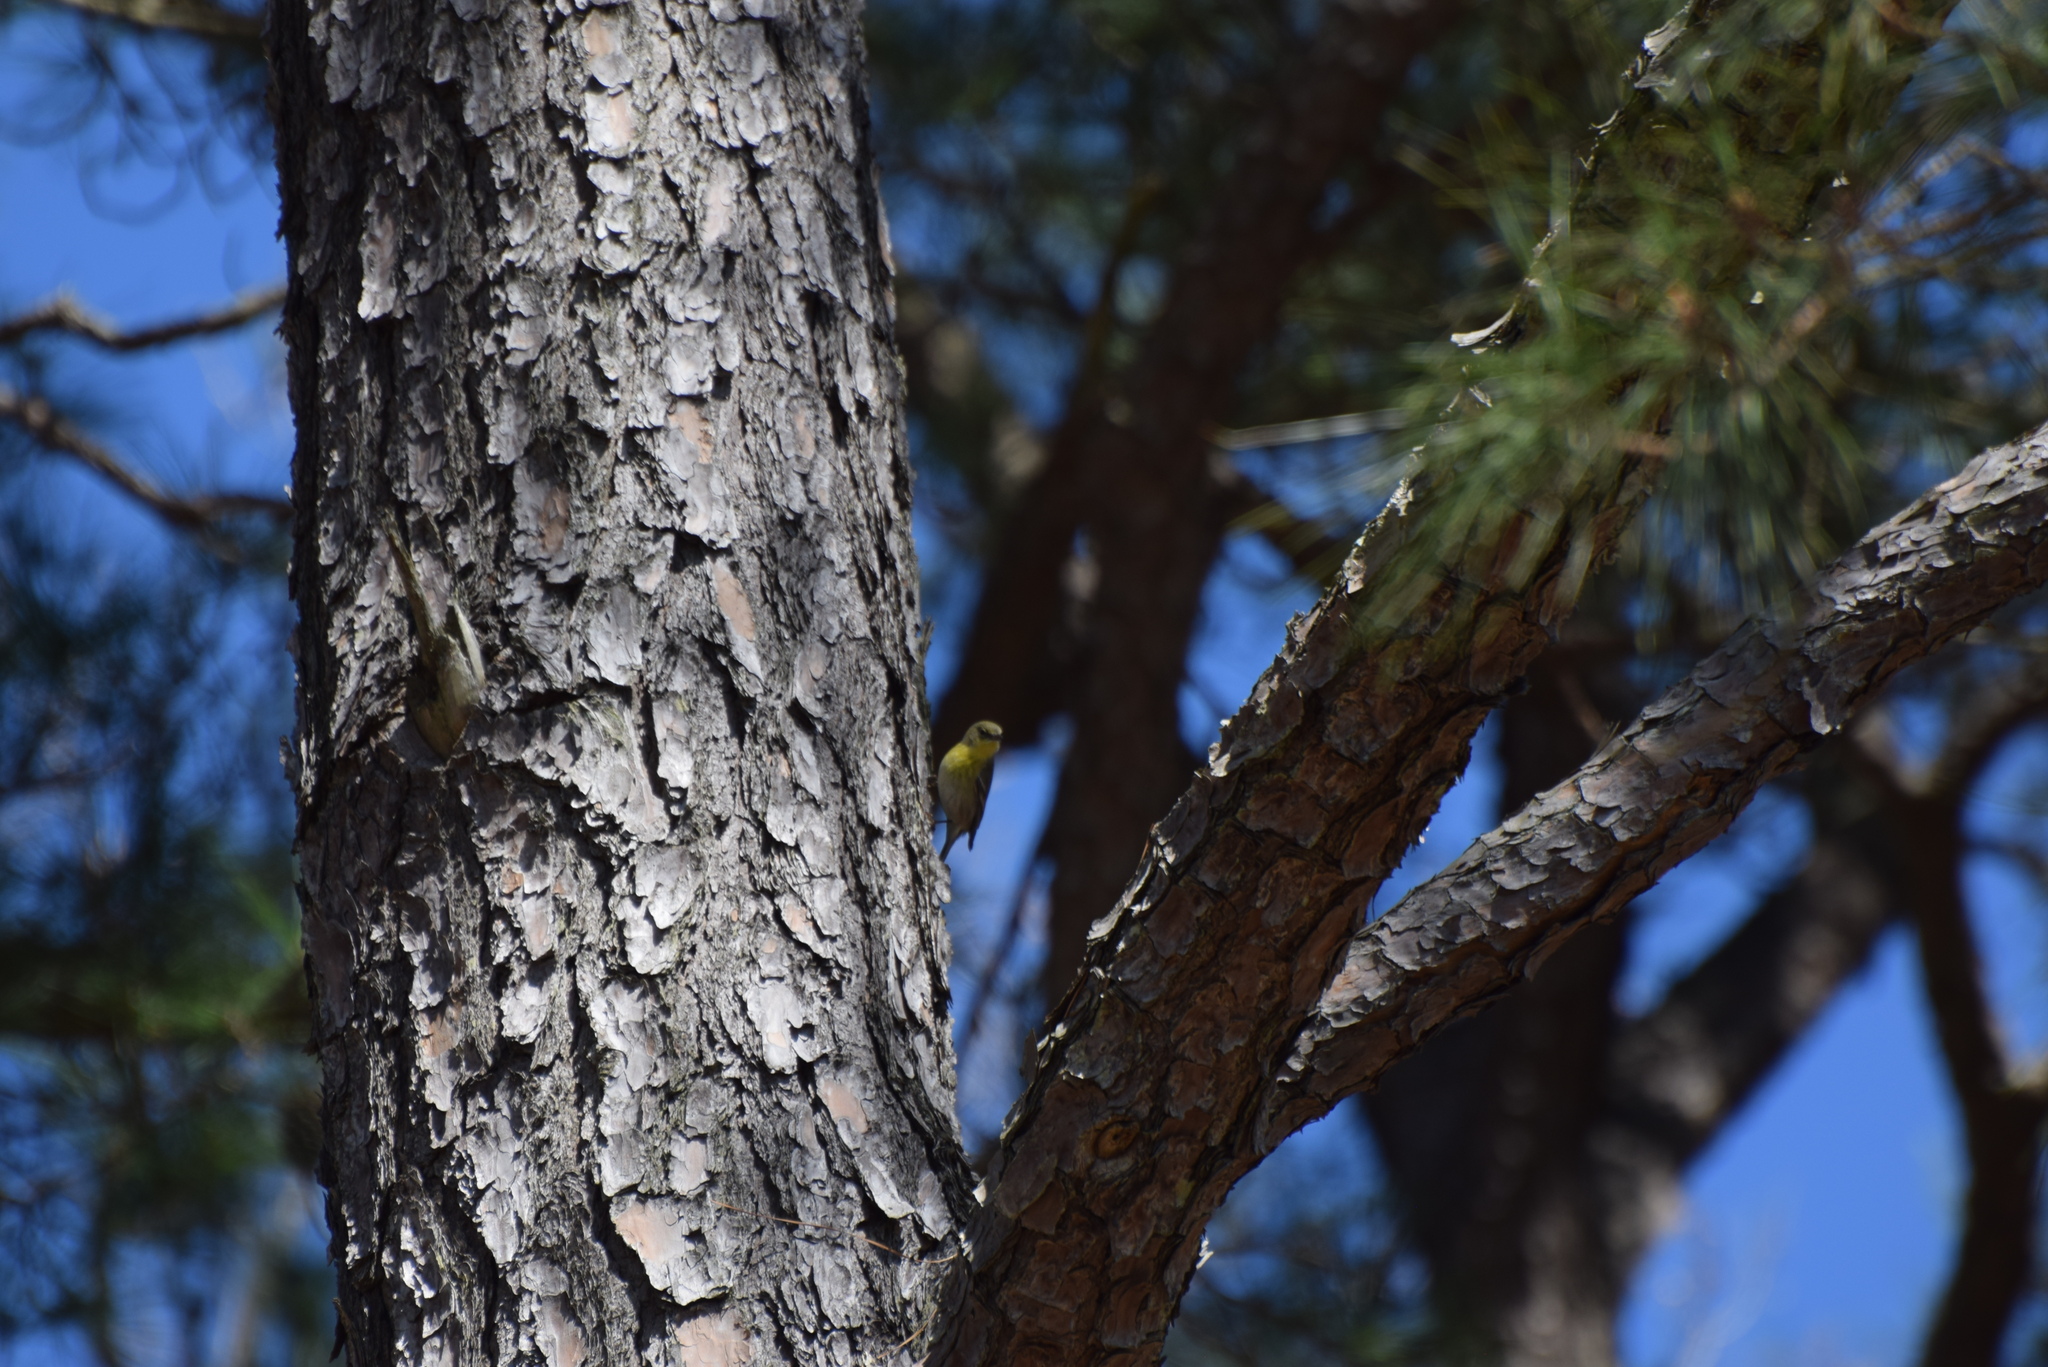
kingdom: Animalia
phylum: Chordata
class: Aves
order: Passeriformes
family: Parulidae
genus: Setophaga
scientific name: Setophaga pinus
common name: Pine warbler
